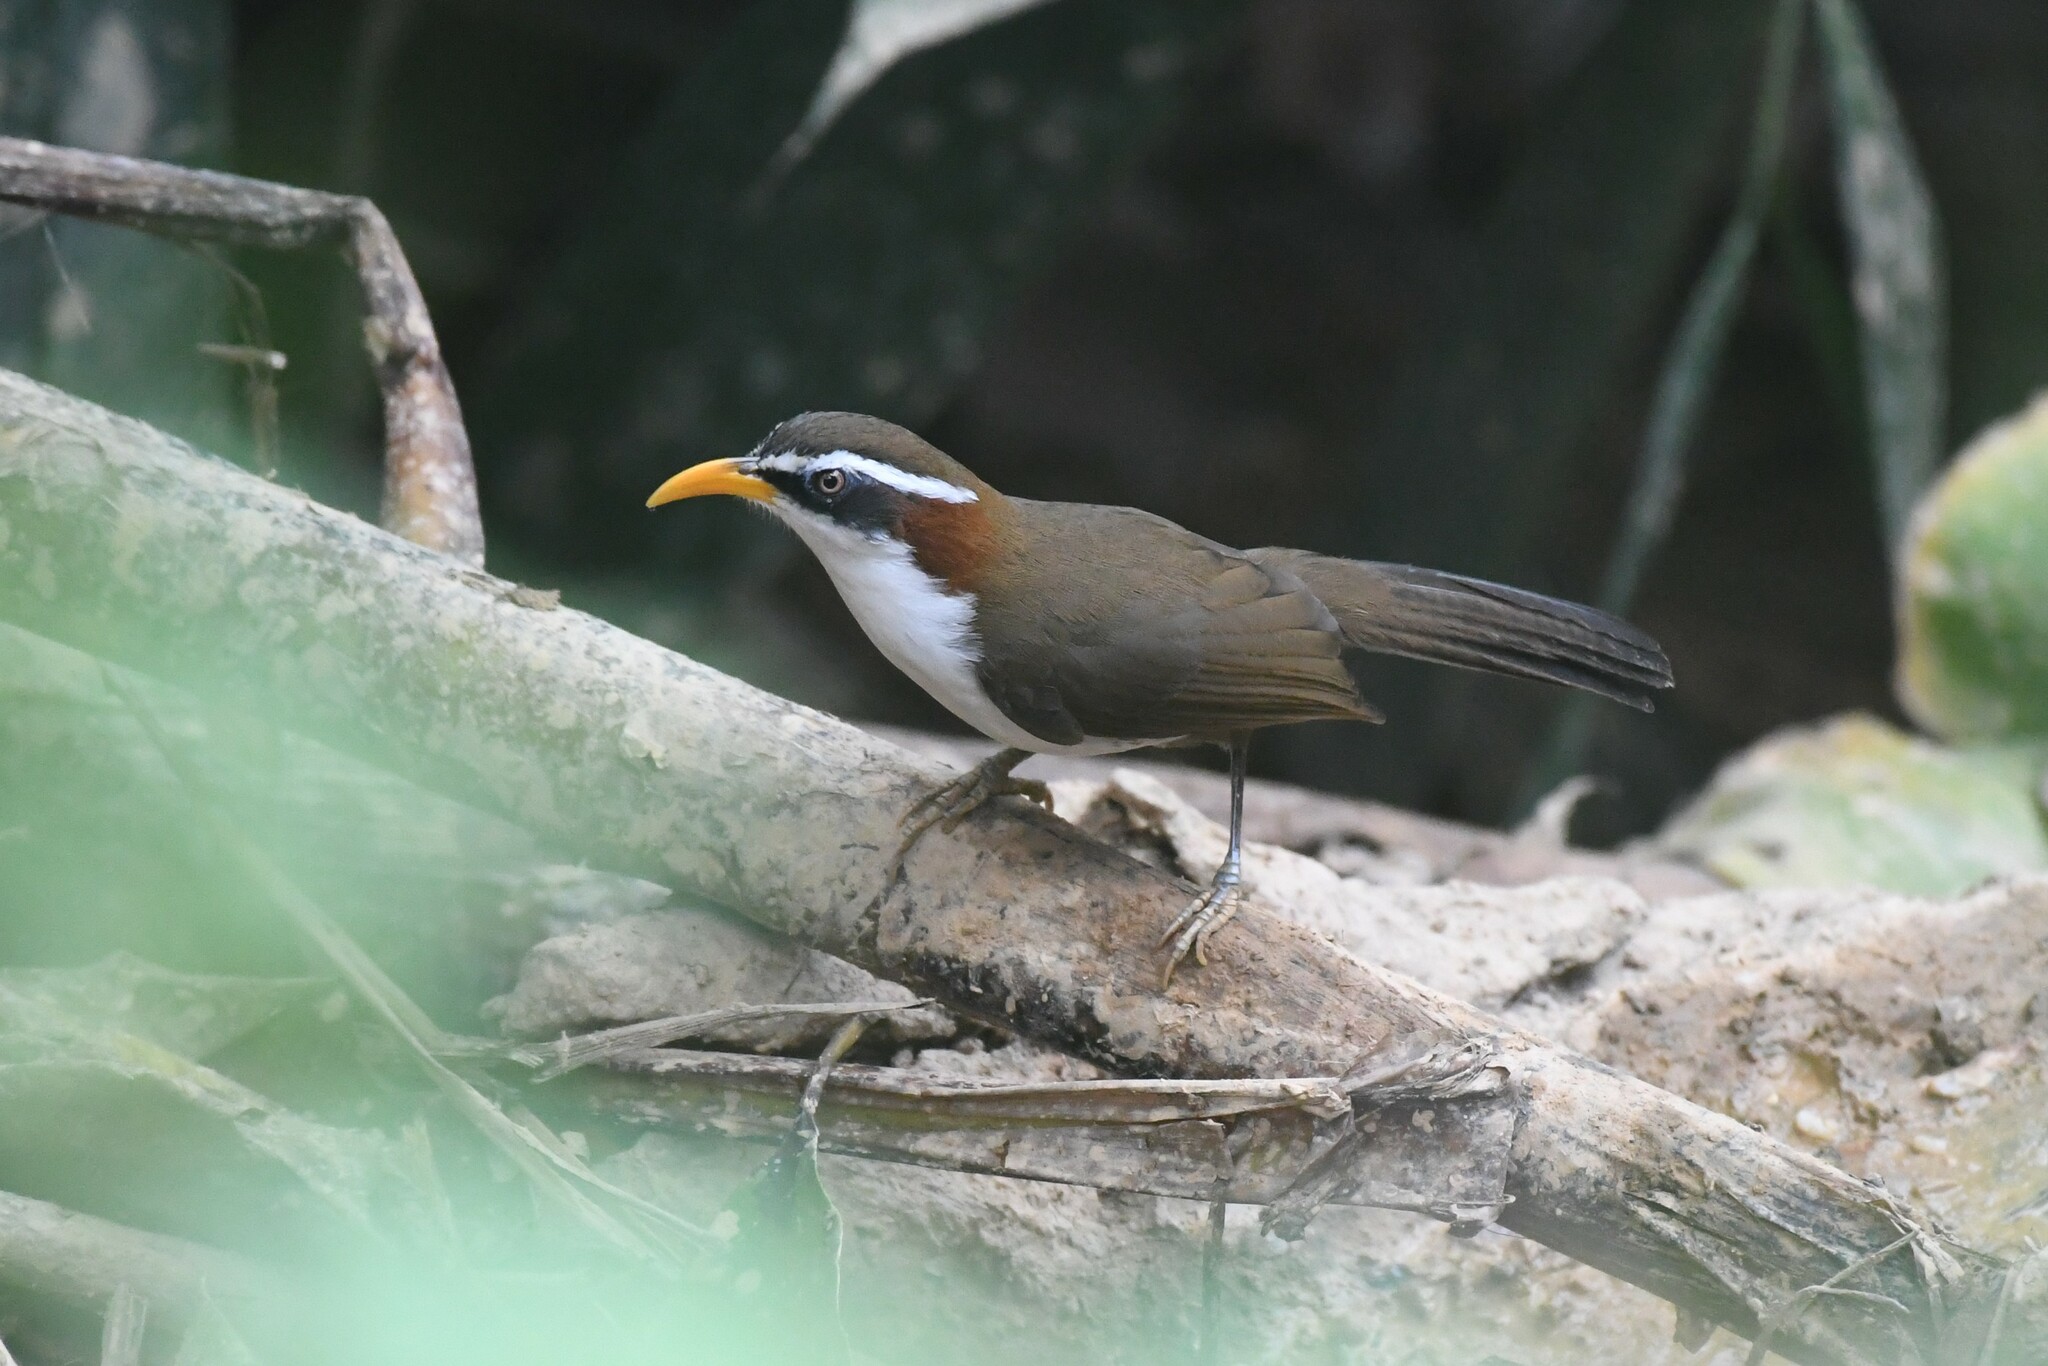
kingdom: Animalia
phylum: Chordata
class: Aves
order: Passeriformes
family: Timaliidae
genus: Pomatorhinus
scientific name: Pomatorhinus schisticeps
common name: White-browed scimitar babbler
